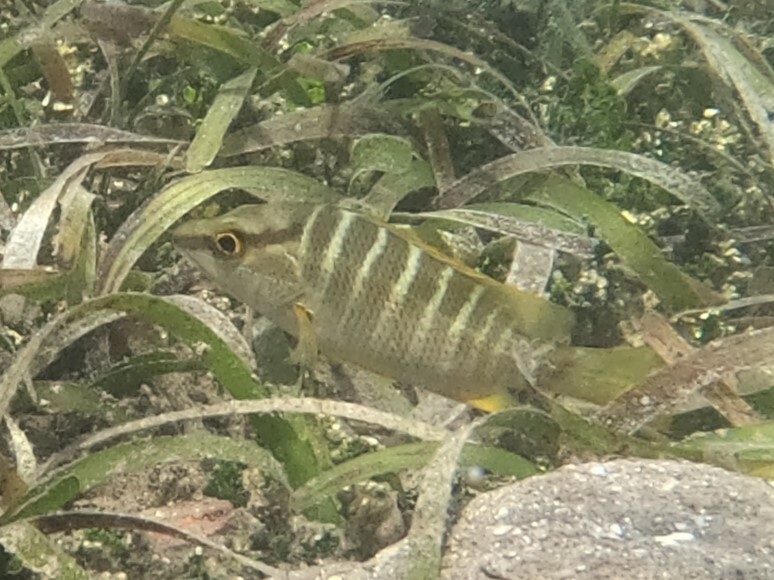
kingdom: Animalia
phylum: Chordata
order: Perciformes
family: Lutjanidae
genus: Lutjanus
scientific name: Lutjanus apodus
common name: Schoolmaster
